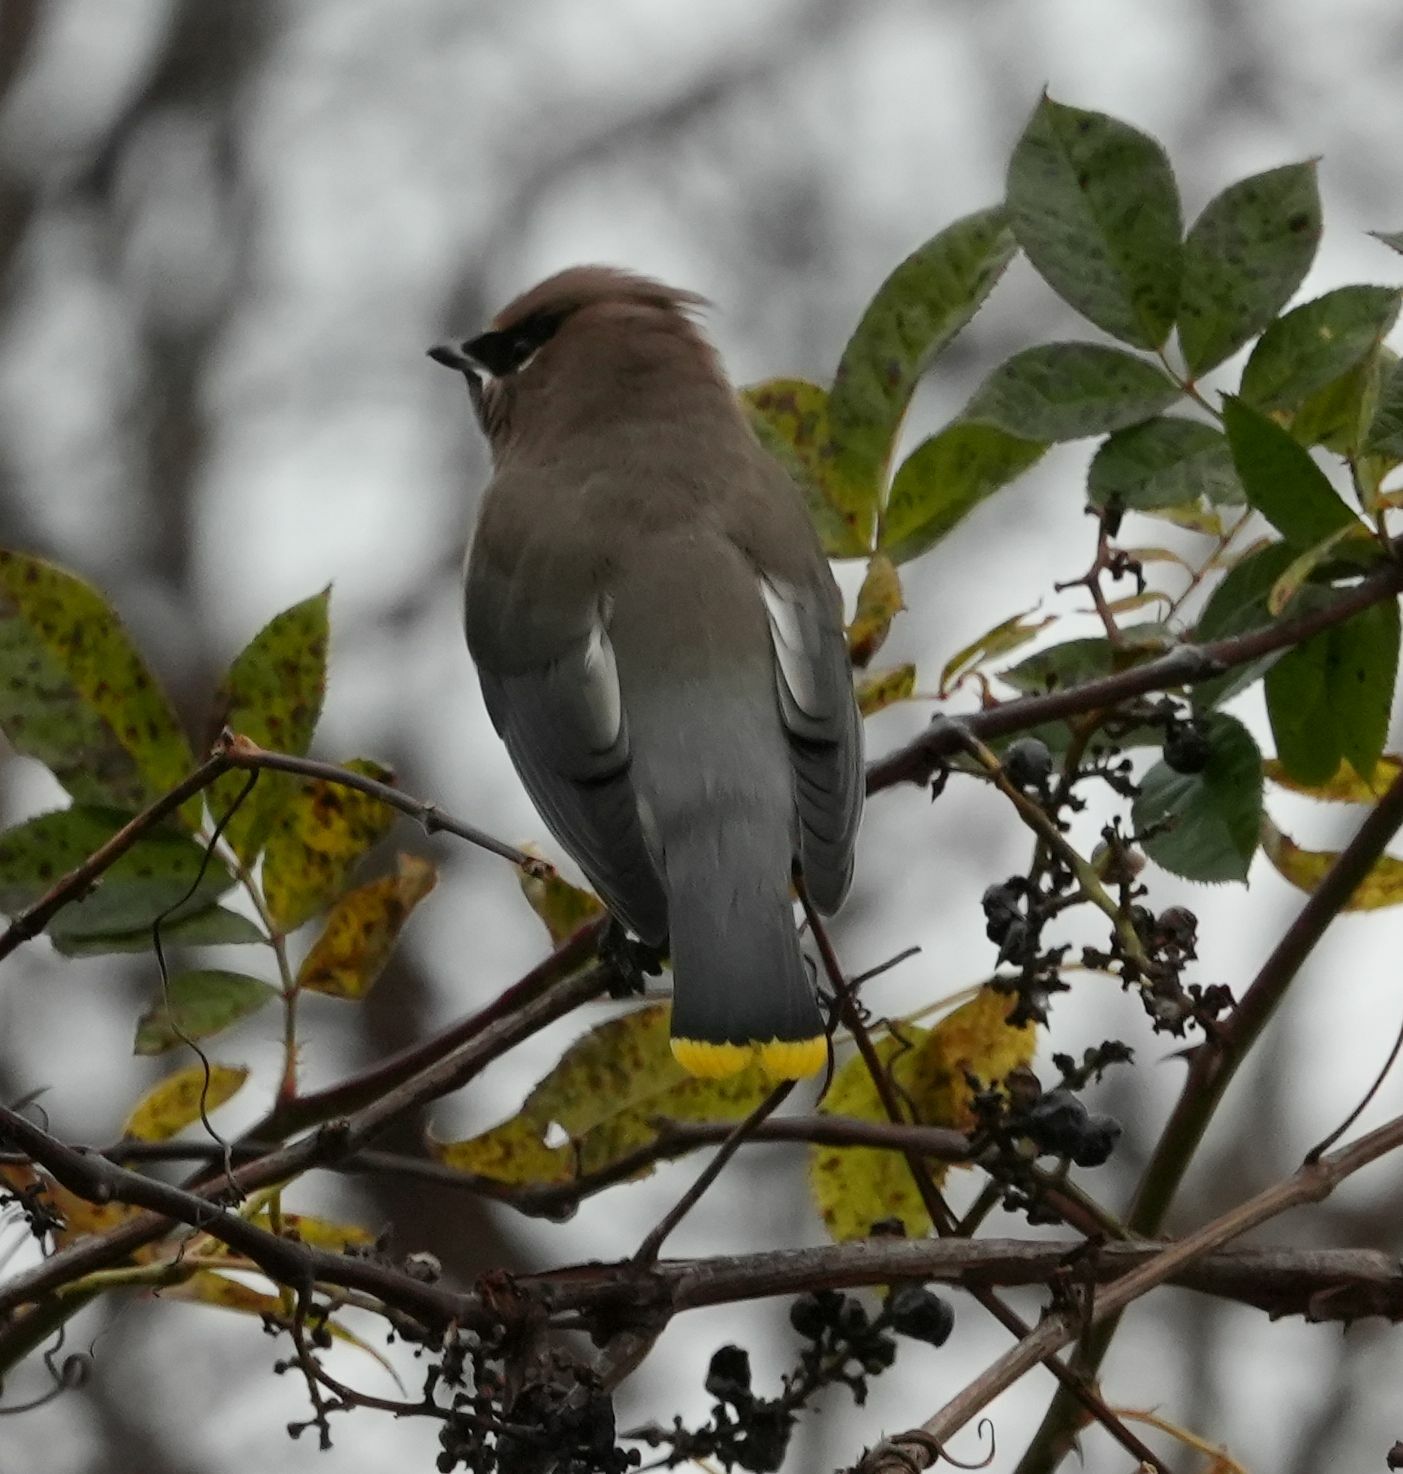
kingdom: Animalia
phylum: Chordata
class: Aves
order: Passeriformes
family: Bombycillidae
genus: Bombycilla
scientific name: Bombycilla cedrorum
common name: Cedar waxwing
